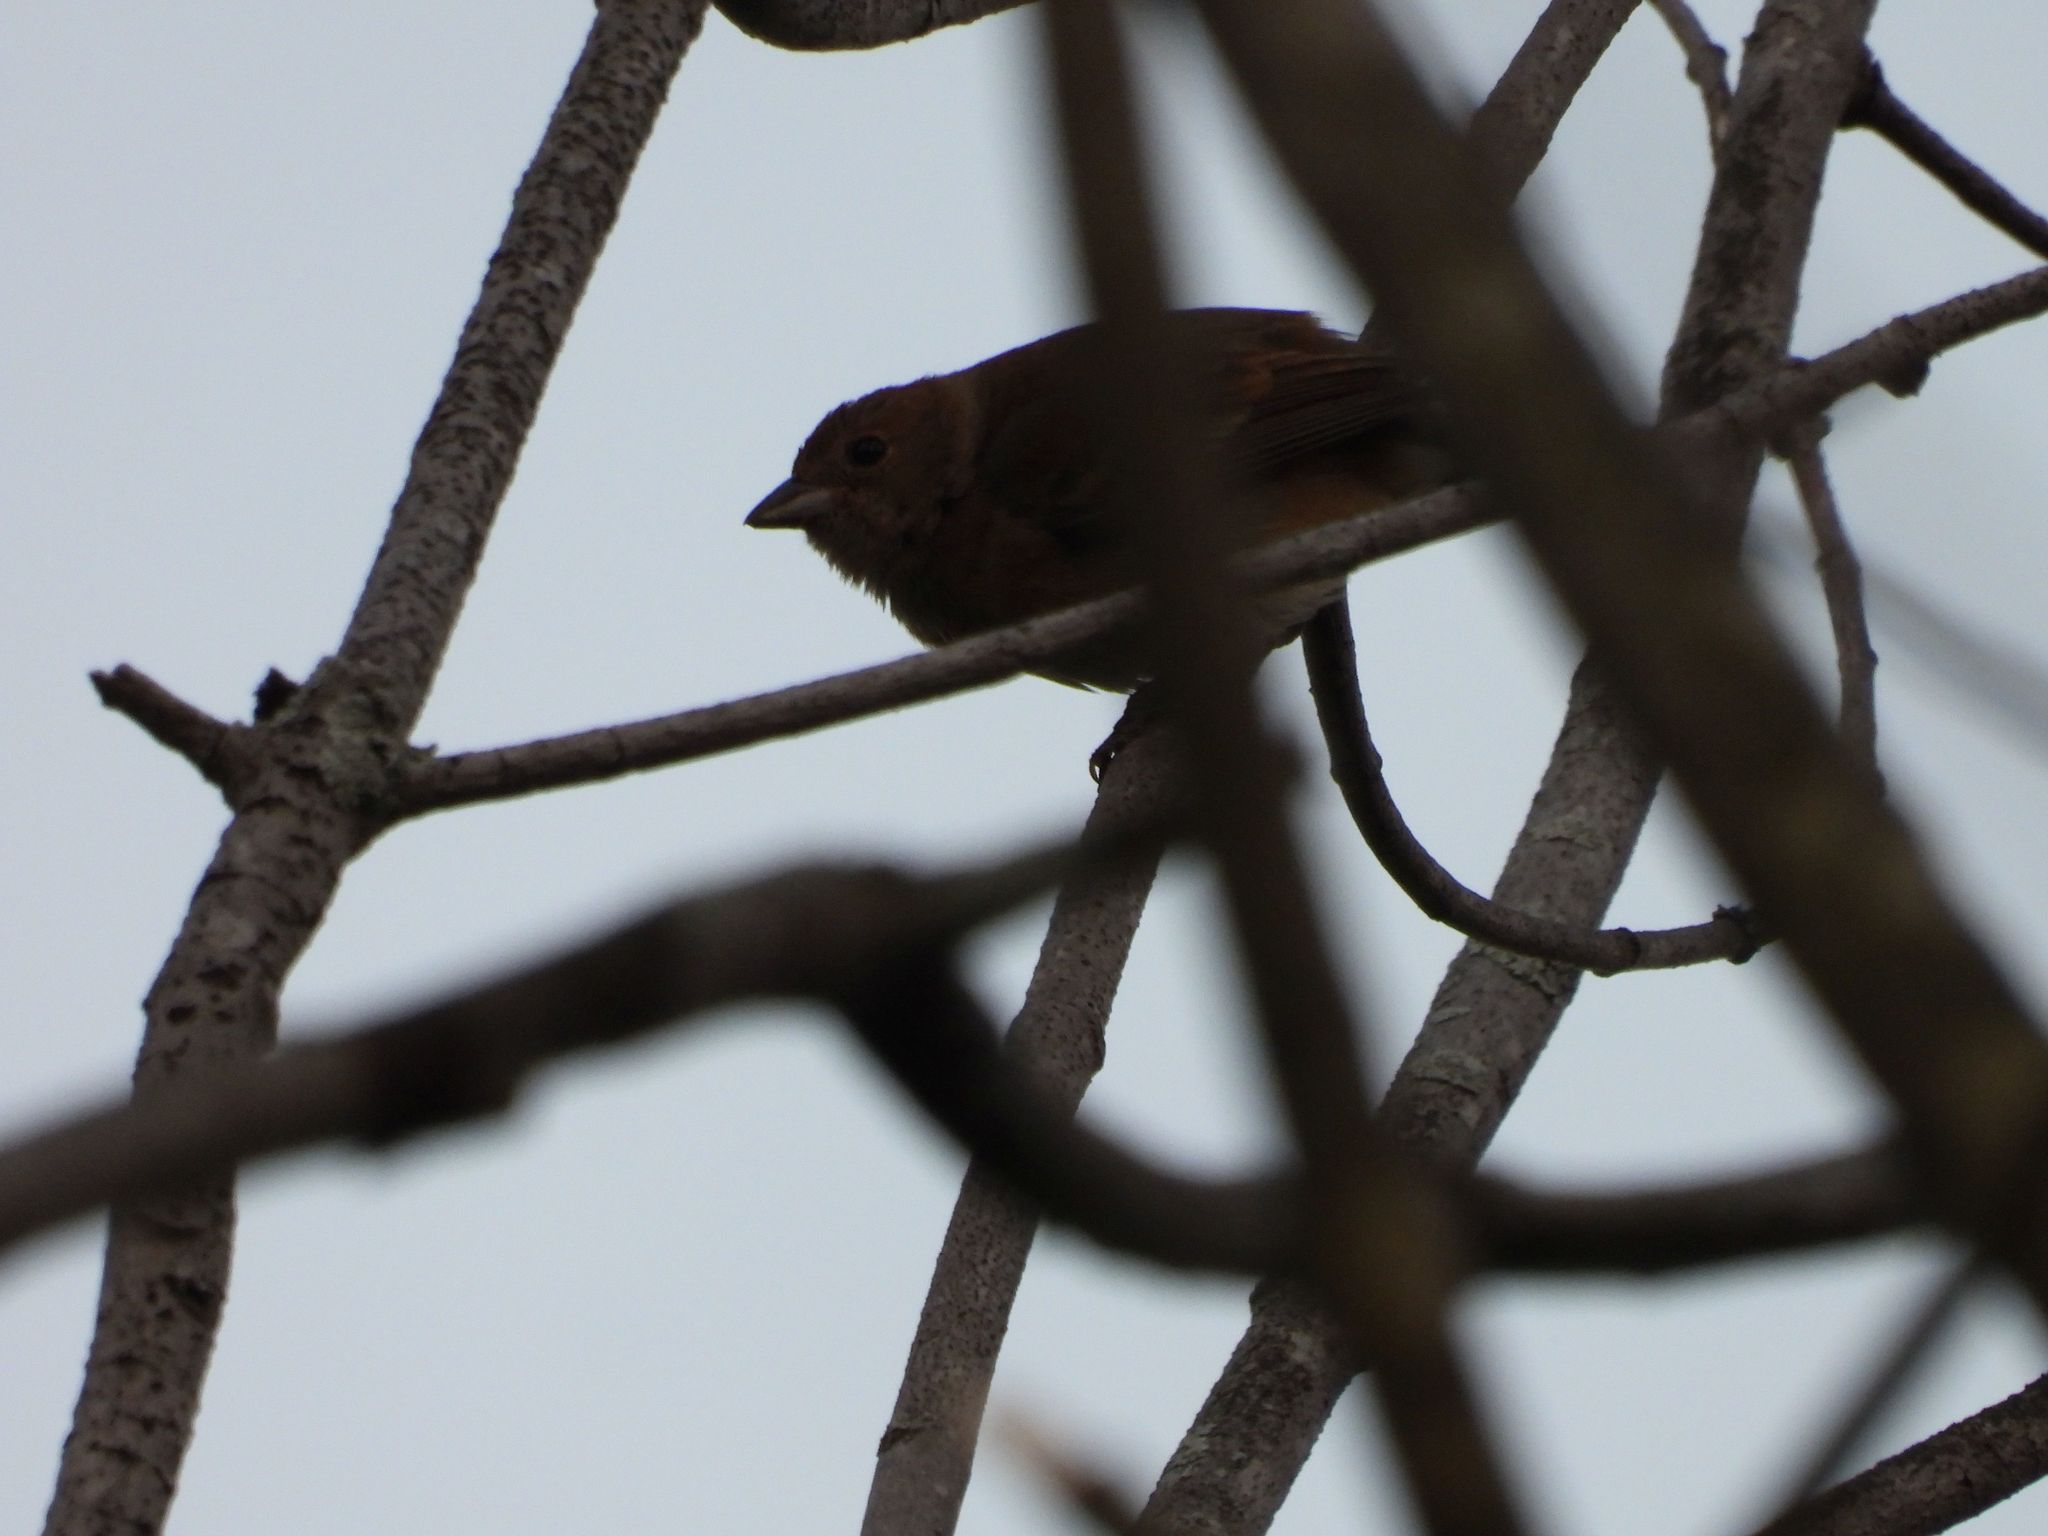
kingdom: Animalia
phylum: Chordata
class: Aves
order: Passeriformes
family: Cardinalidae
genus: Passerina
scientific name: Passerina cyanea
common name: Indigo bunting
